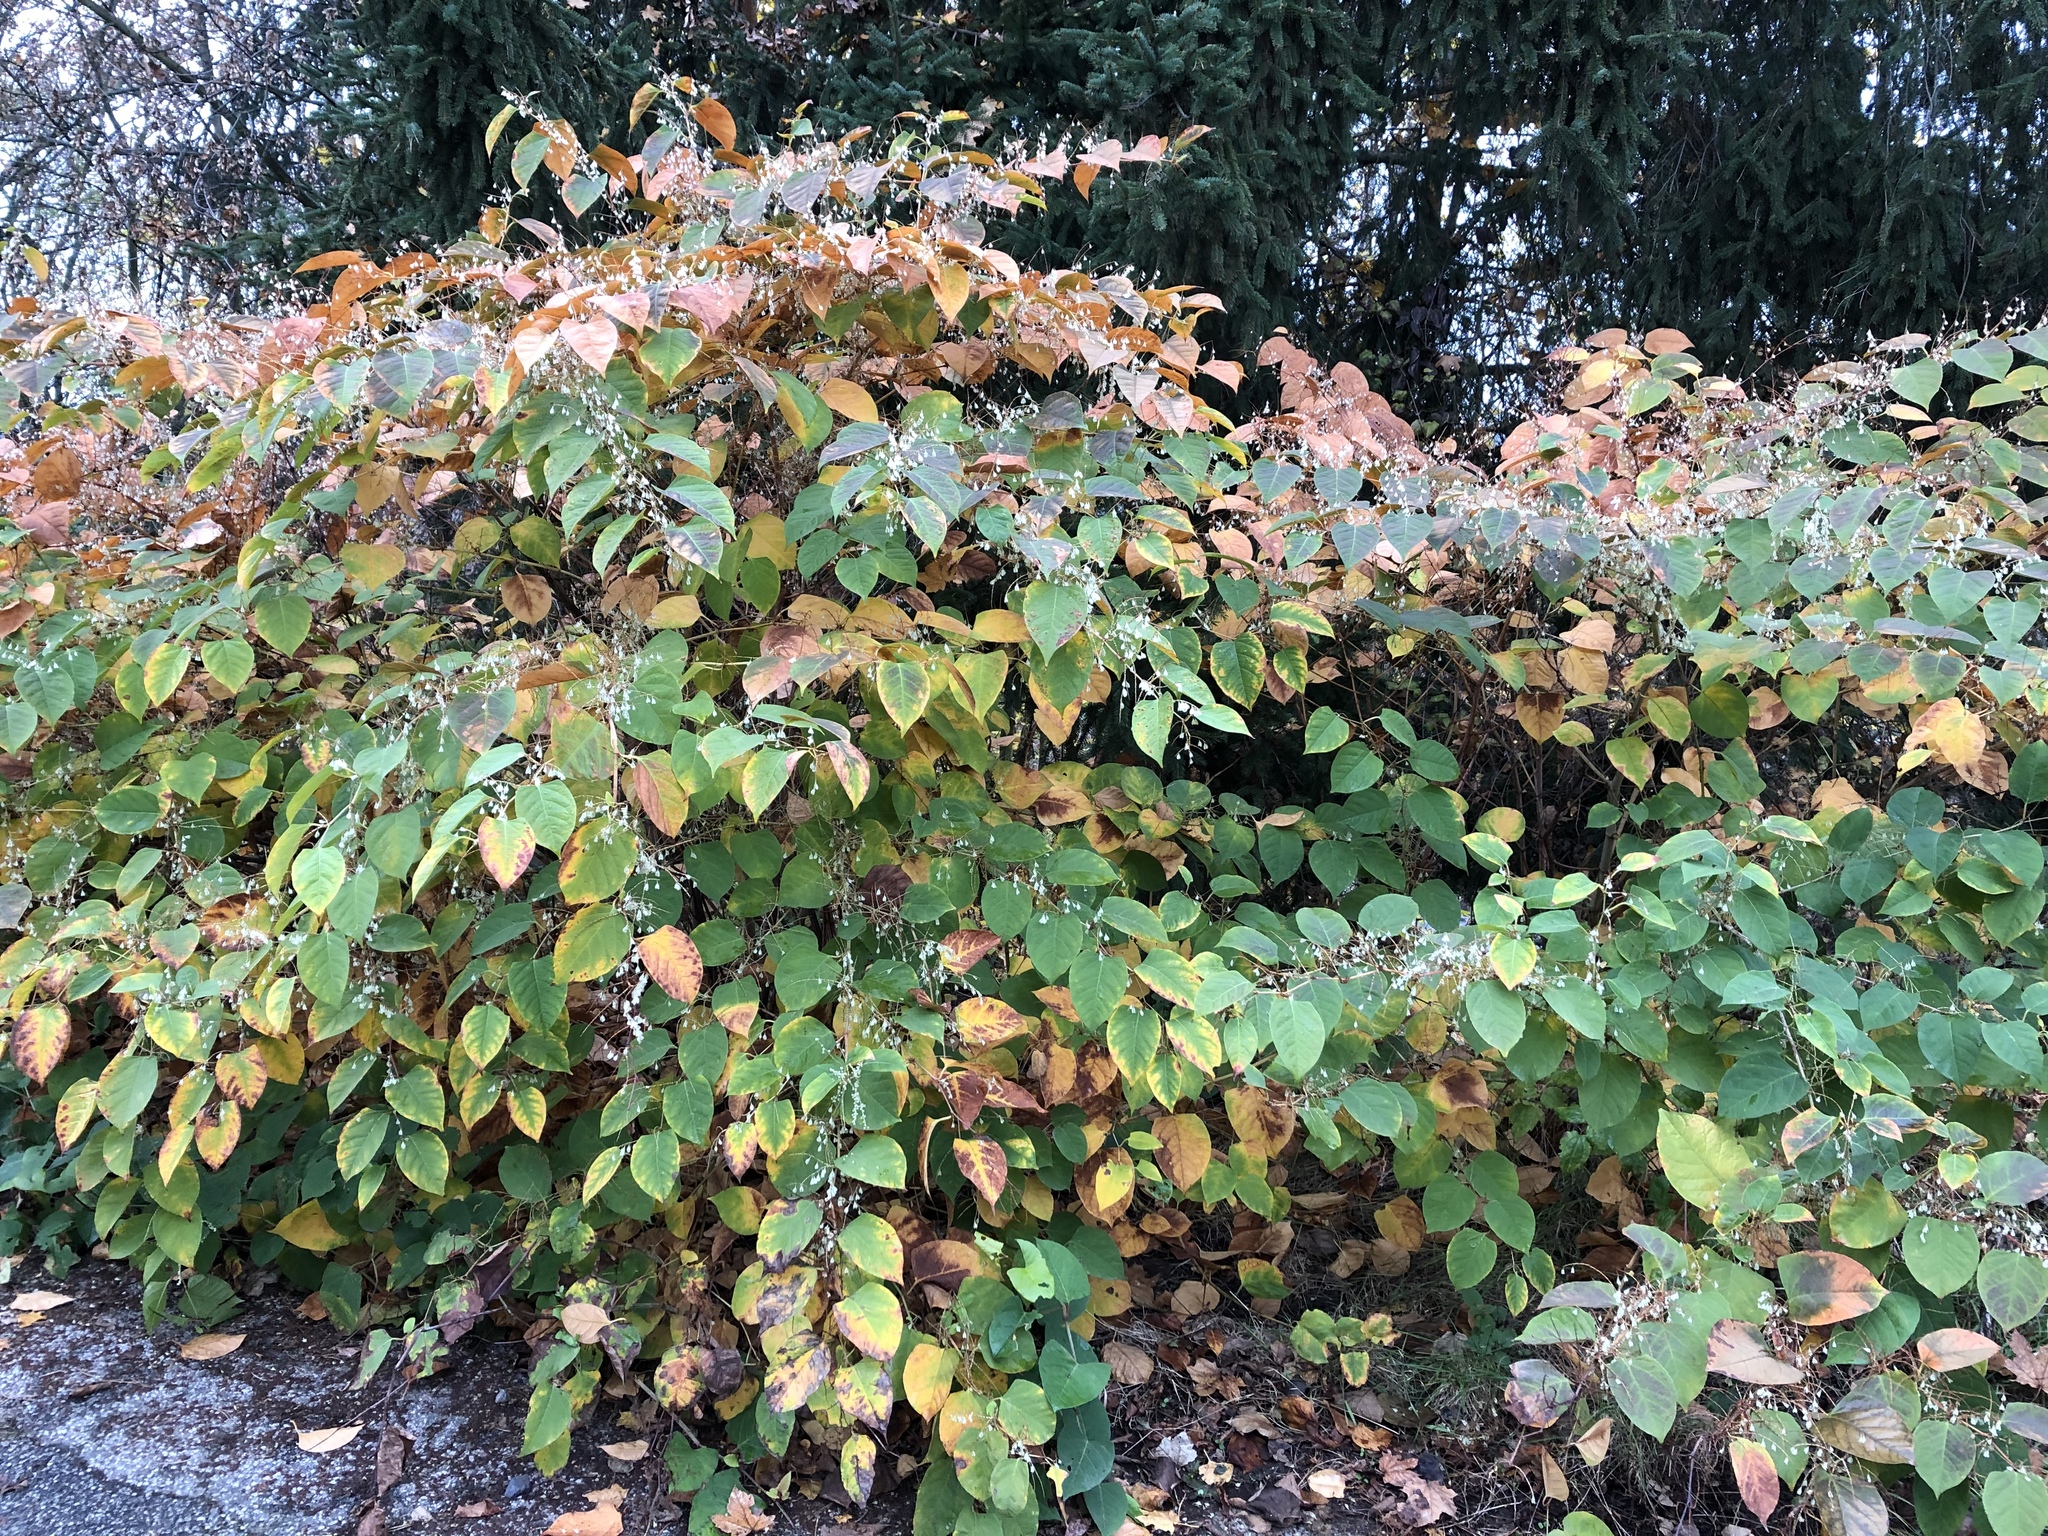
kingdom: Plantae
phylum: Tracheophyta
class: Magnoliopsida
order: Caryophyllales
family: Polygonaceae
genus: Reynoutria
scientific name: Reynoutria japonica
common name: Japanese knotweed
